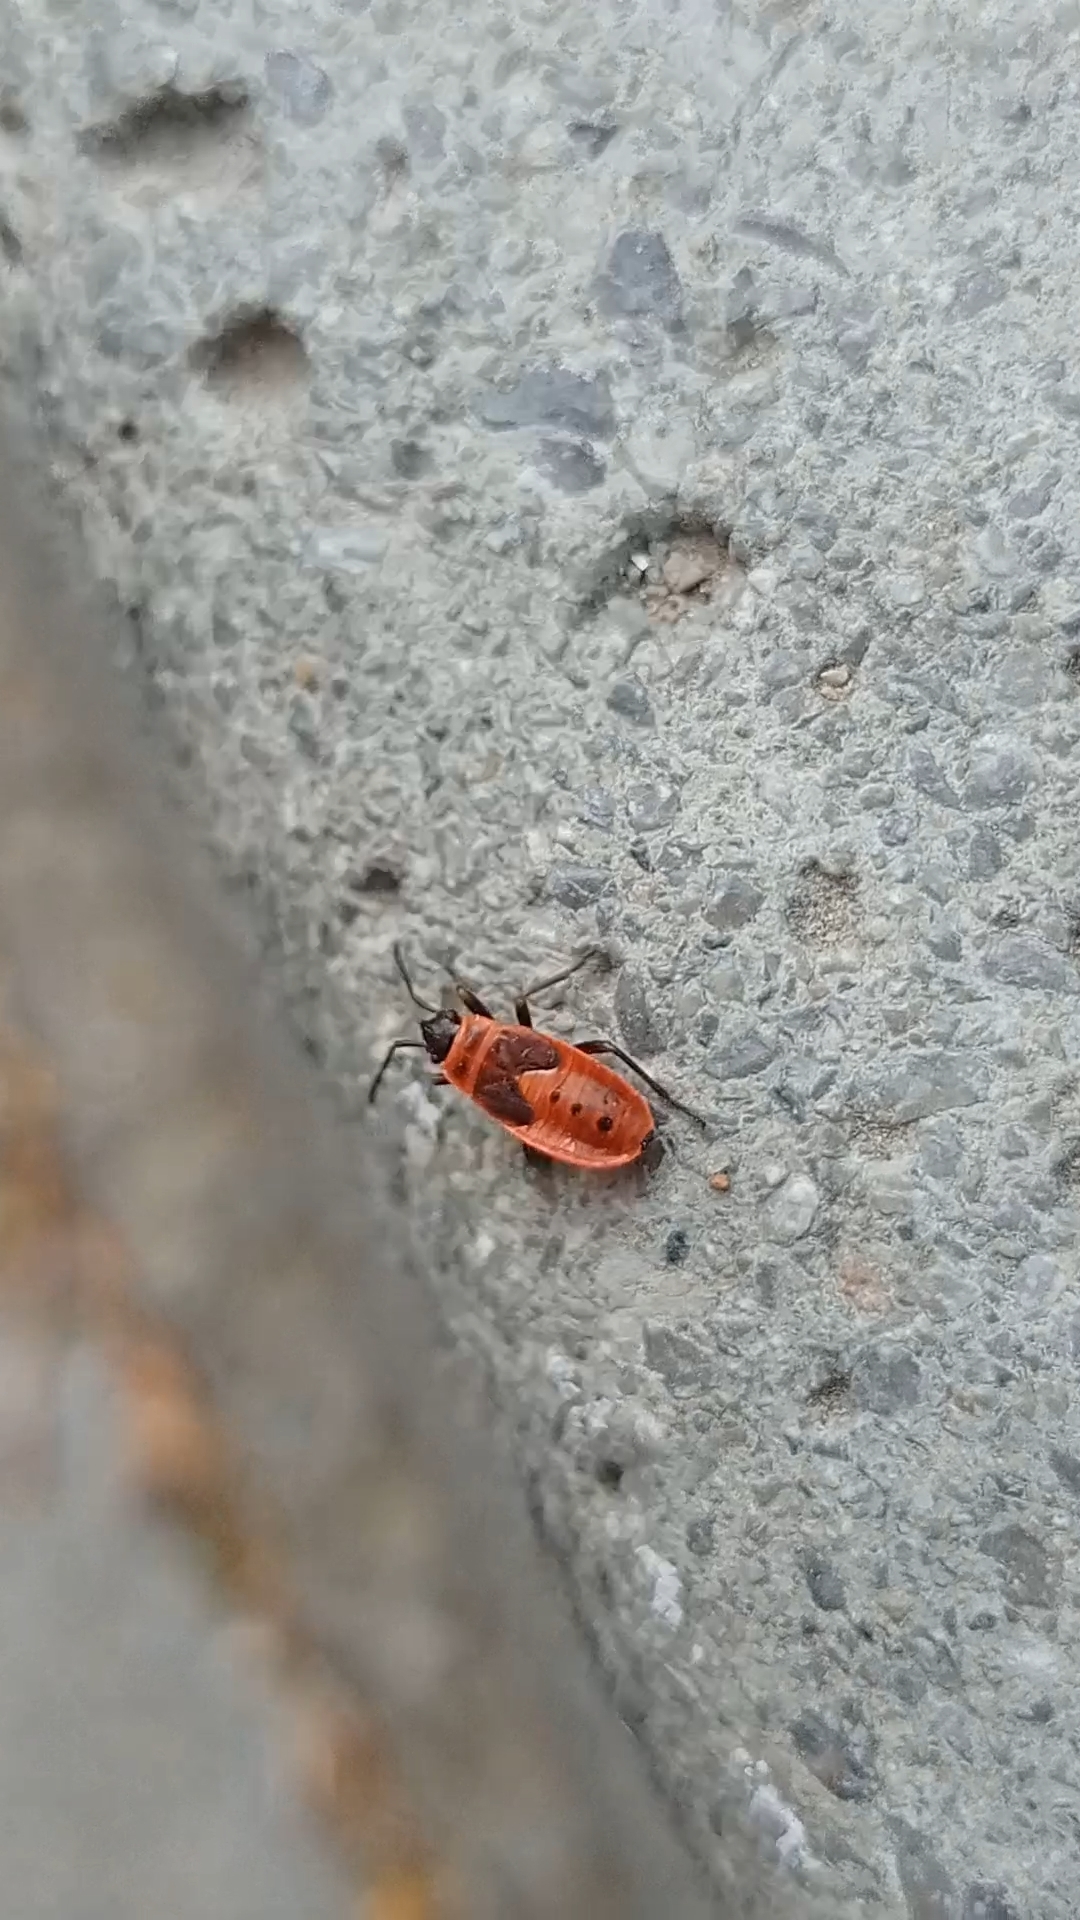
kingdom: Animalia
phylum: Arthropoda
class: Insecta
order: Hemiptera
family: Pyrrhocoridae
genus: Pyrrhocoris
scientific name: Pyrrhocoris apterus
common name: Firebug
